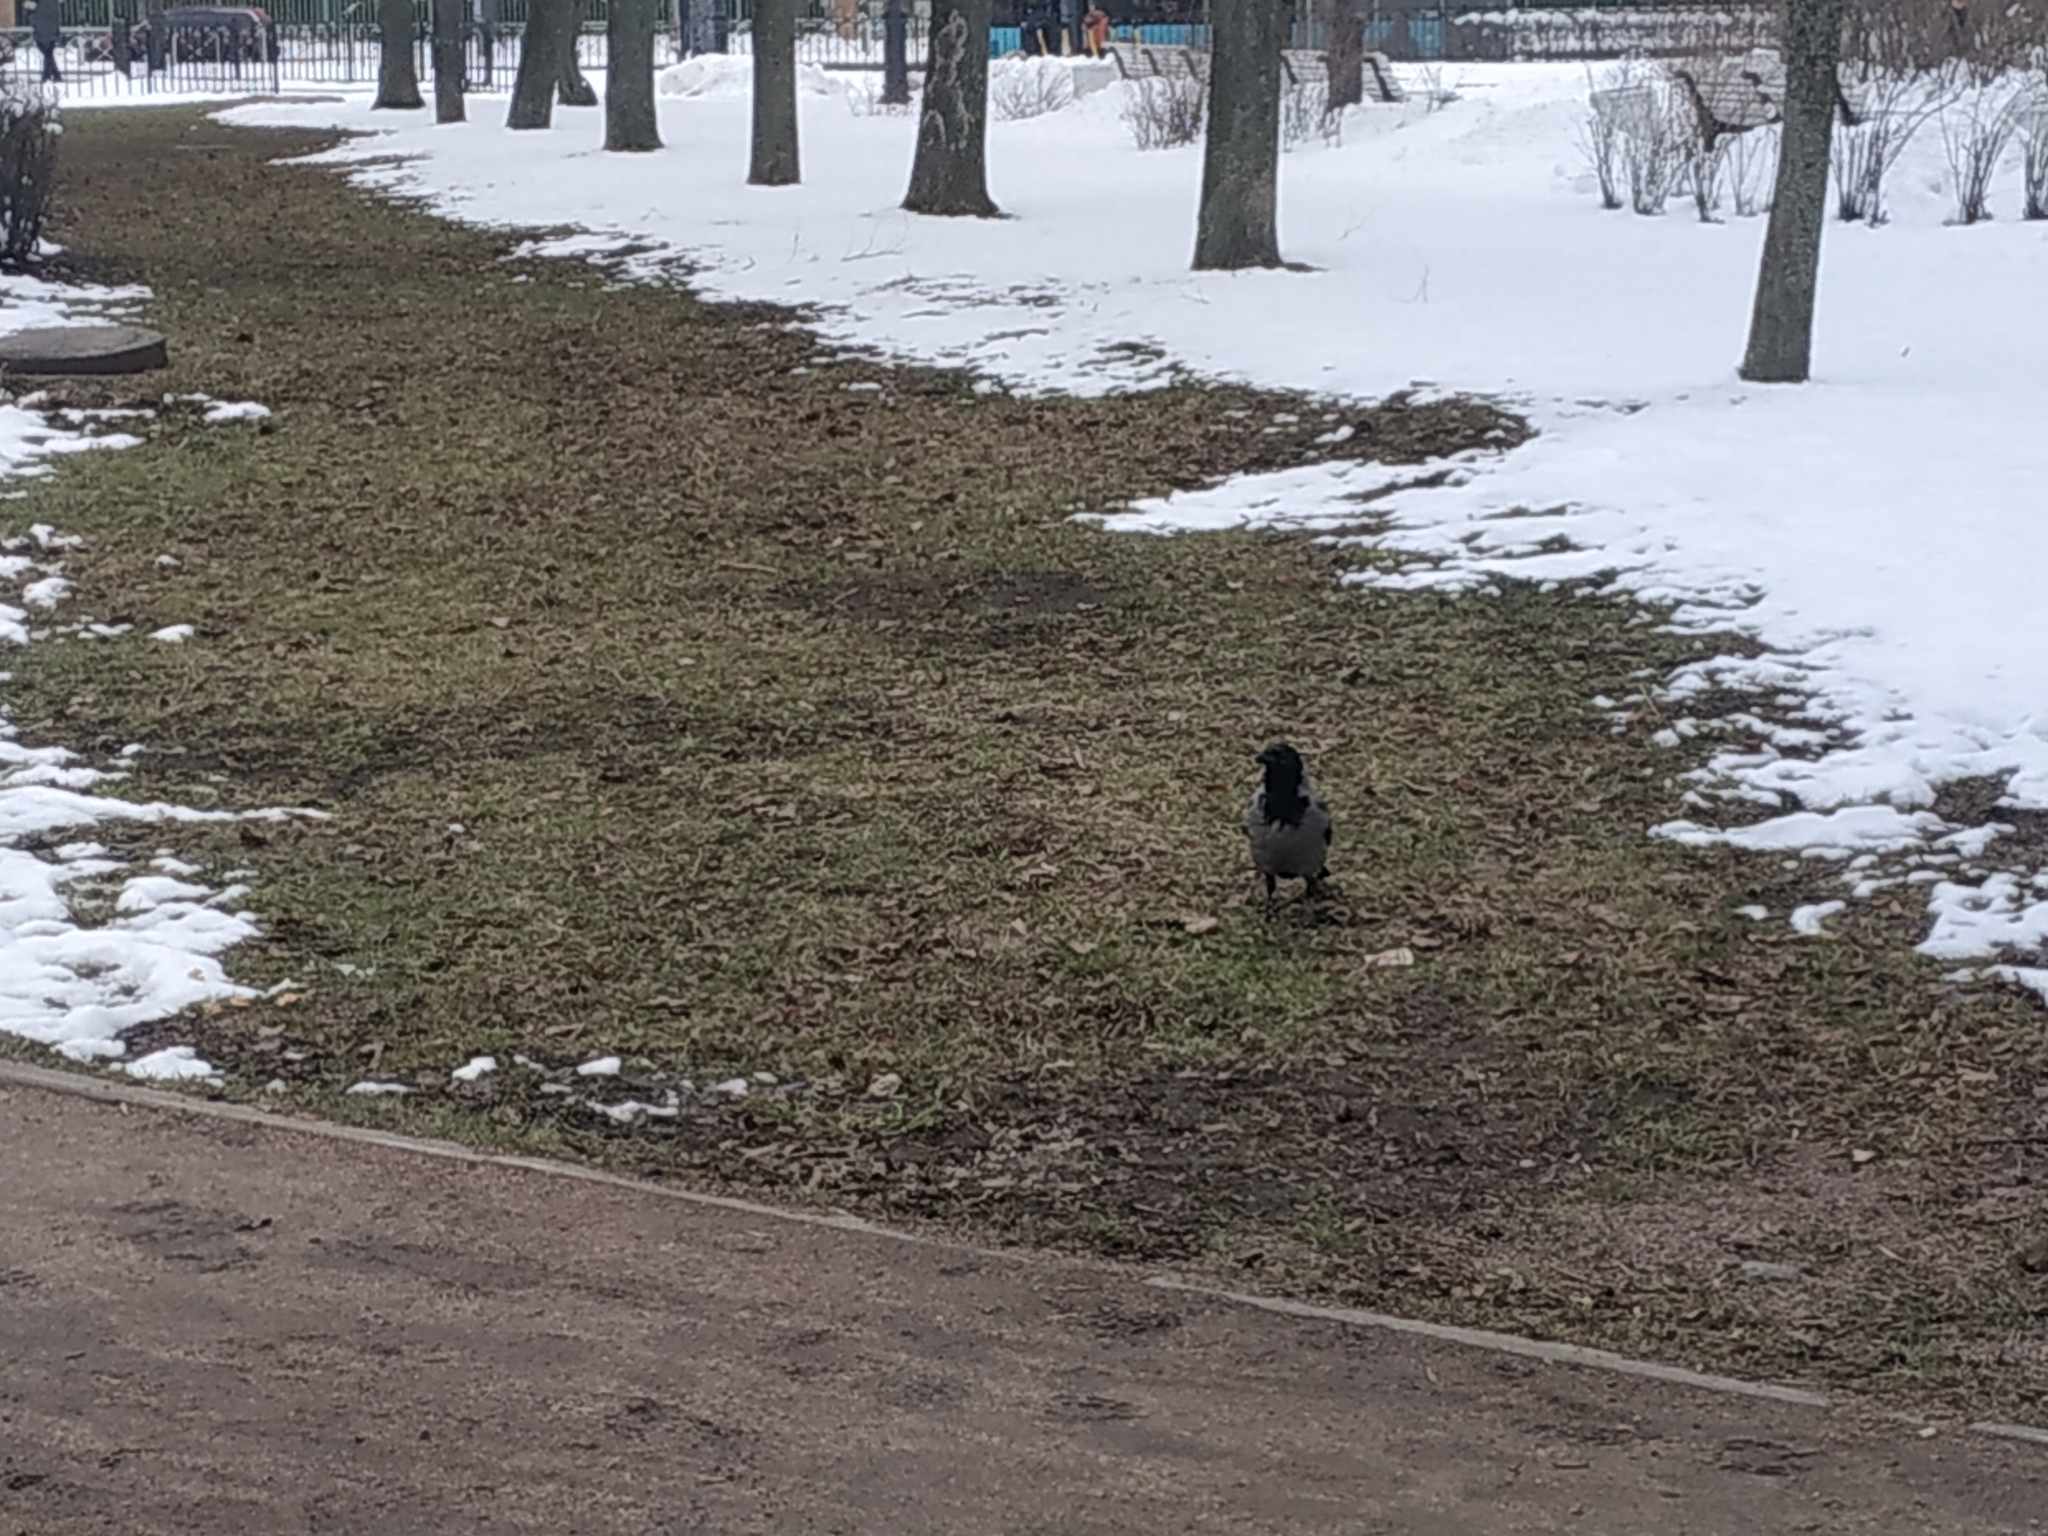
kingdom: Animalia
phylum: Chordata
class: Aves
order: Passeriformes
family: Corvidae
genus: Corvus
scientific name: Corvus cornix
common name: Hooded crow
